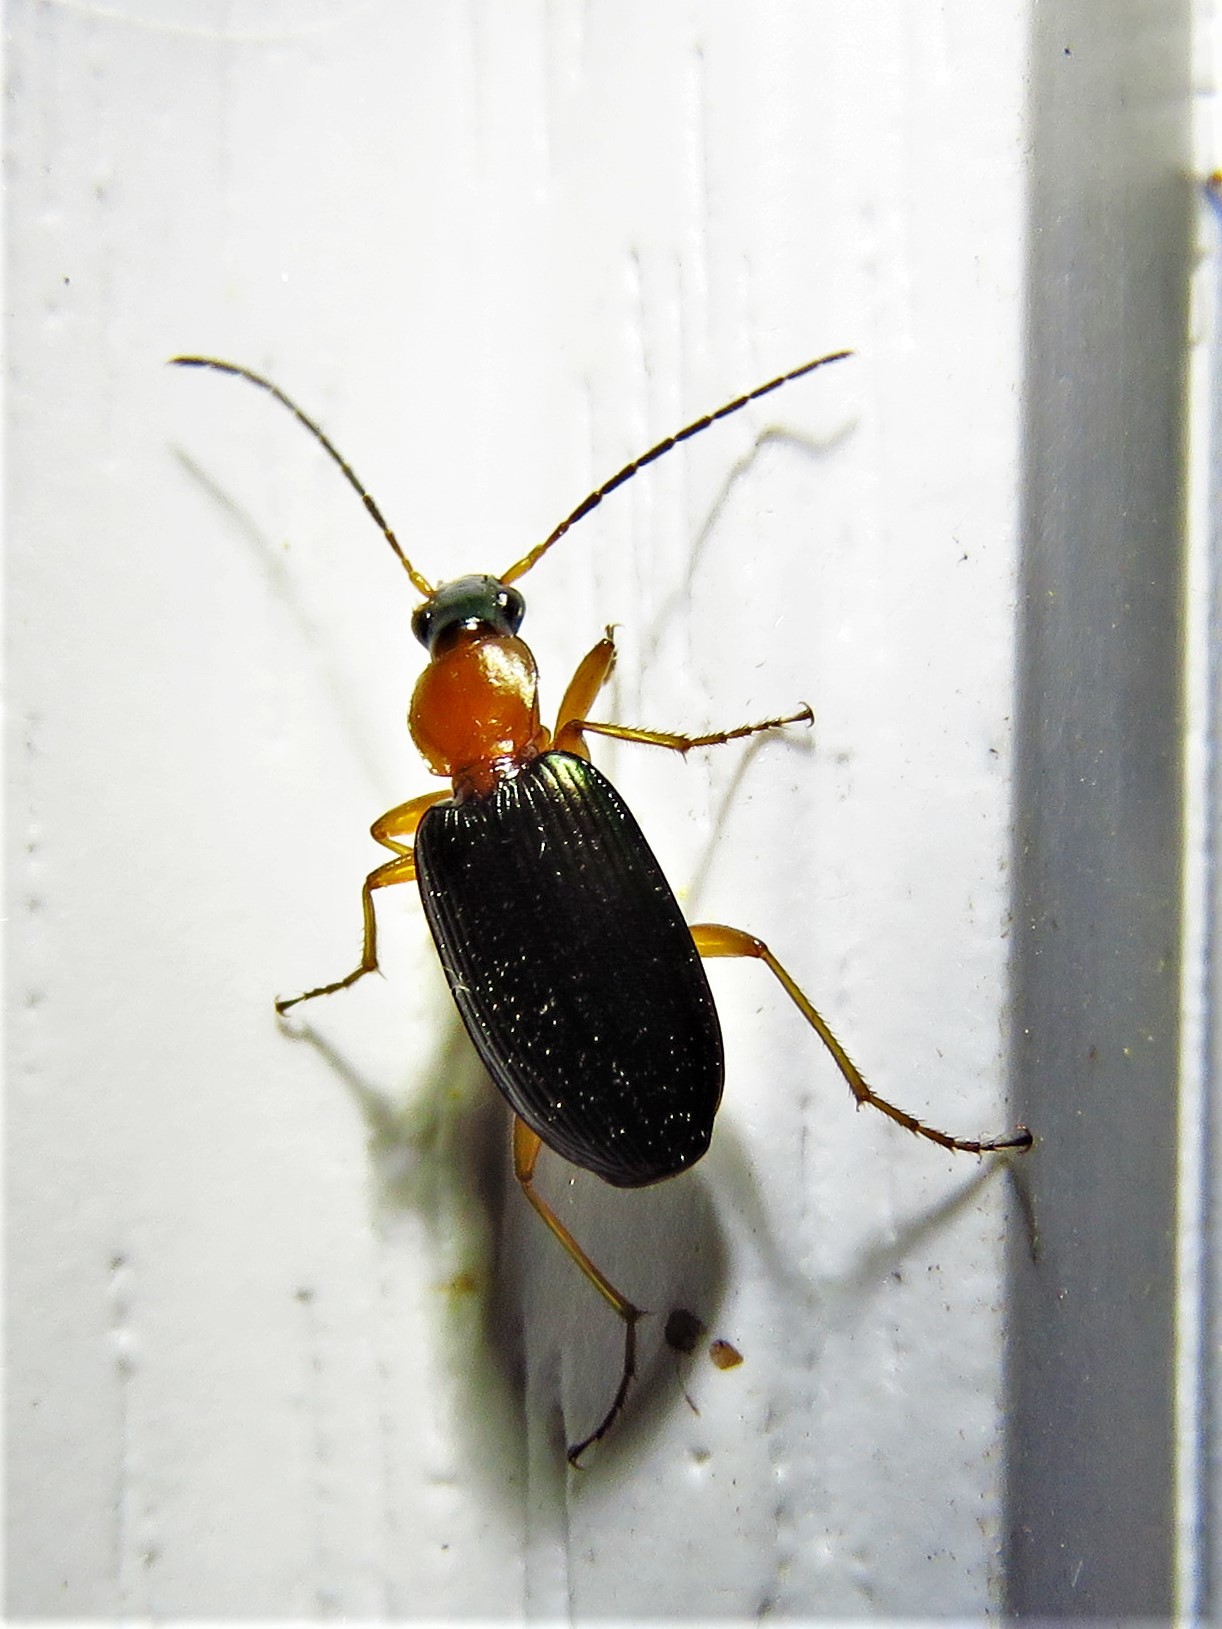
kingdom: Animalia
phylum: Arthropoda
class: Insecta
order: Coleoptera
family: Carabidae
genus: Agonum
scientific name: Agonum decorum
